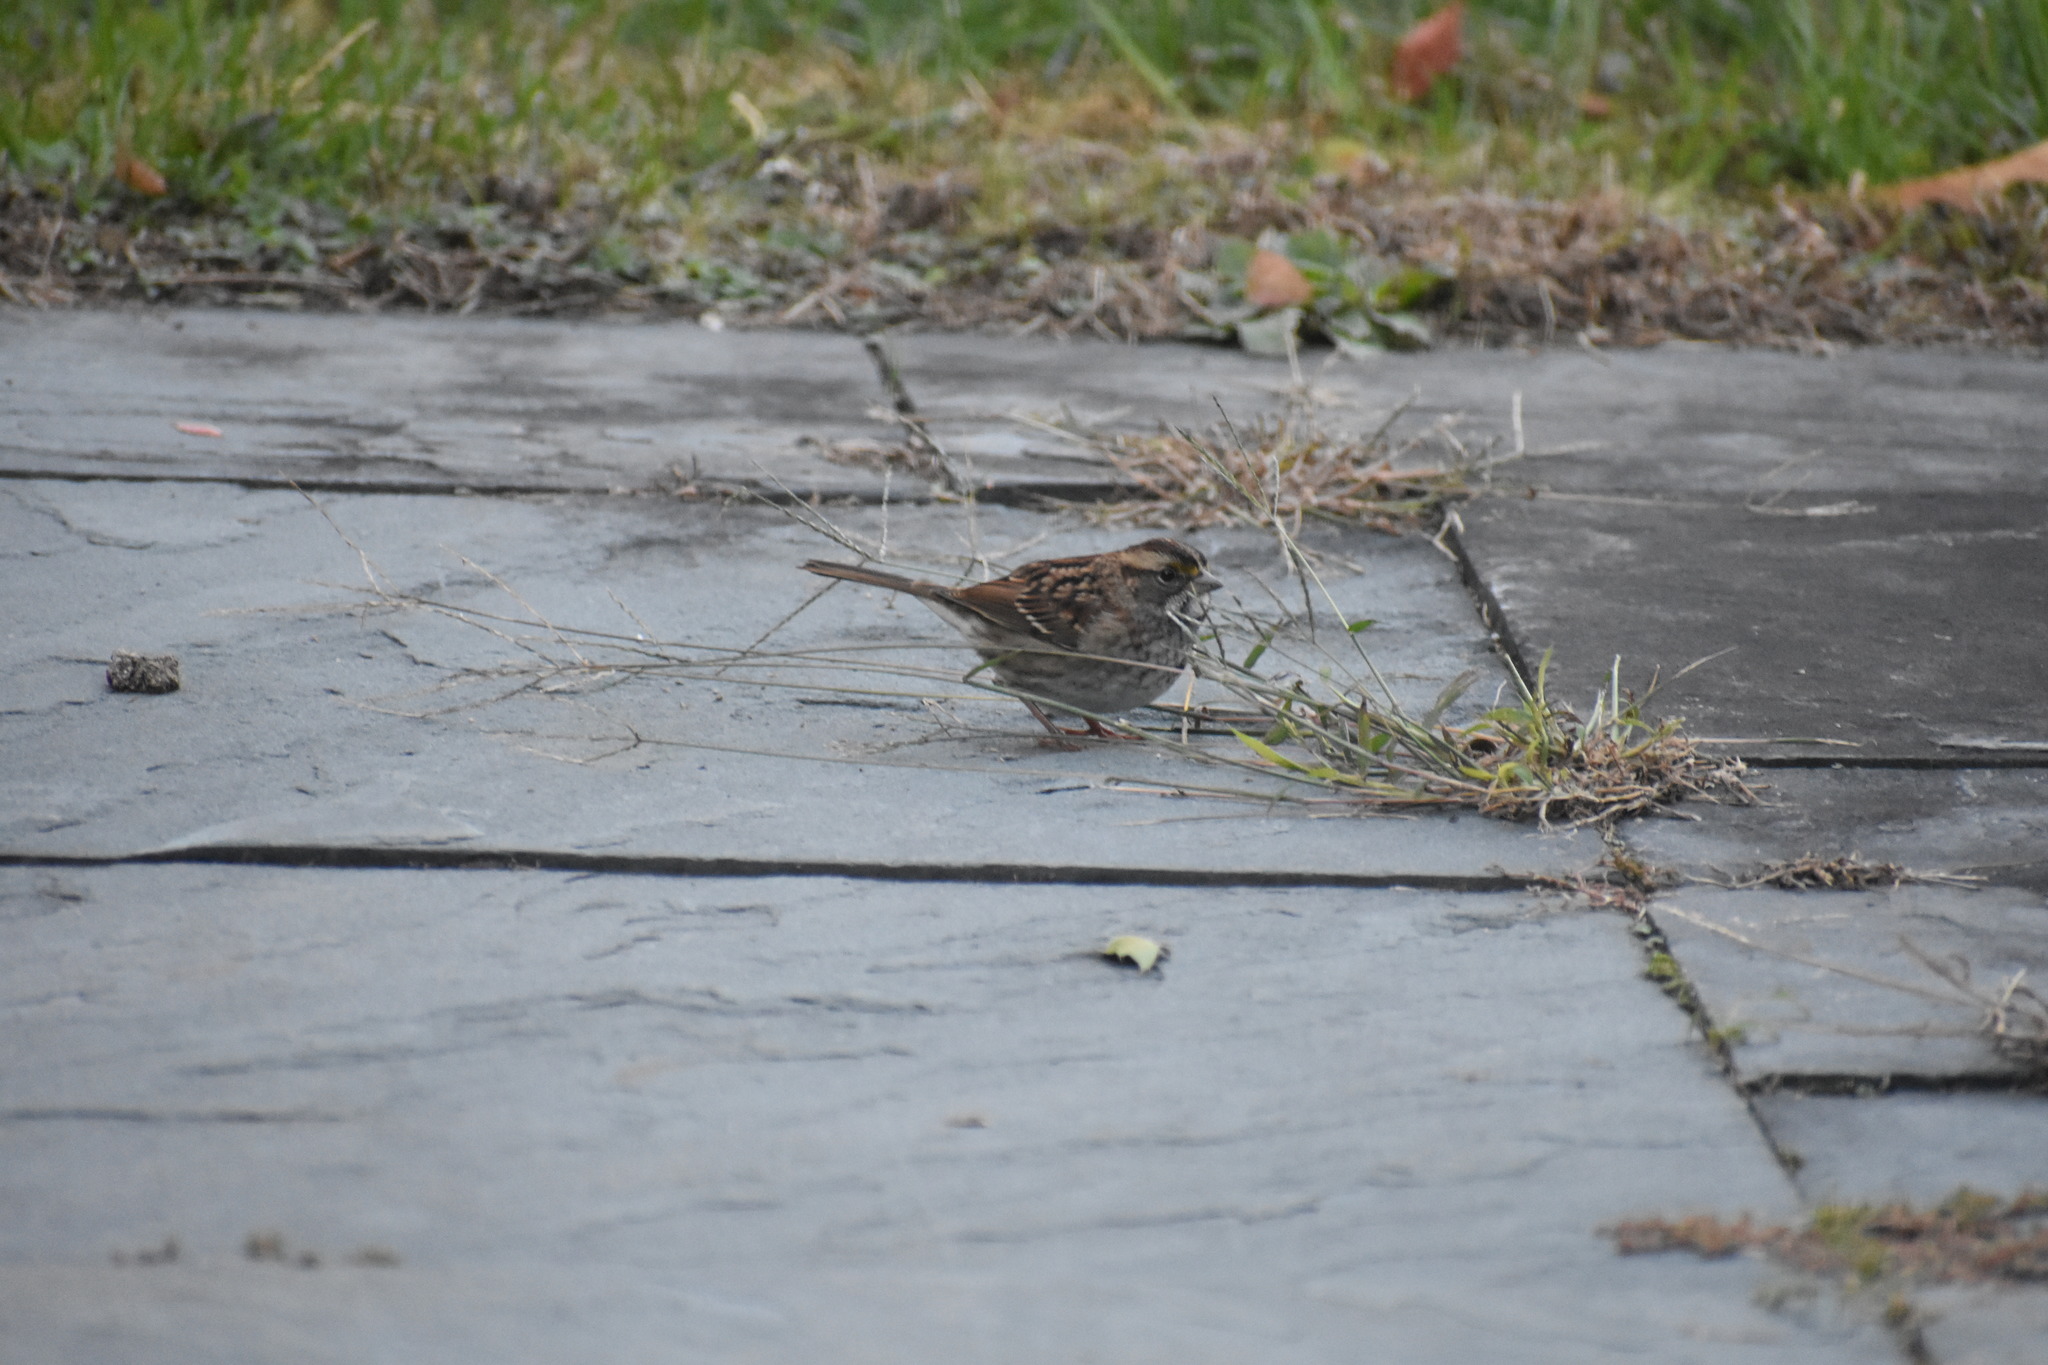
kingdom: Animalia
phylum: Chordata
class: Aves
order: Passeriformes
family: Passerellidae
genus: Zonotrichia
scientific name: Zonotrichia albicollis
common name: White-throated sparrow
